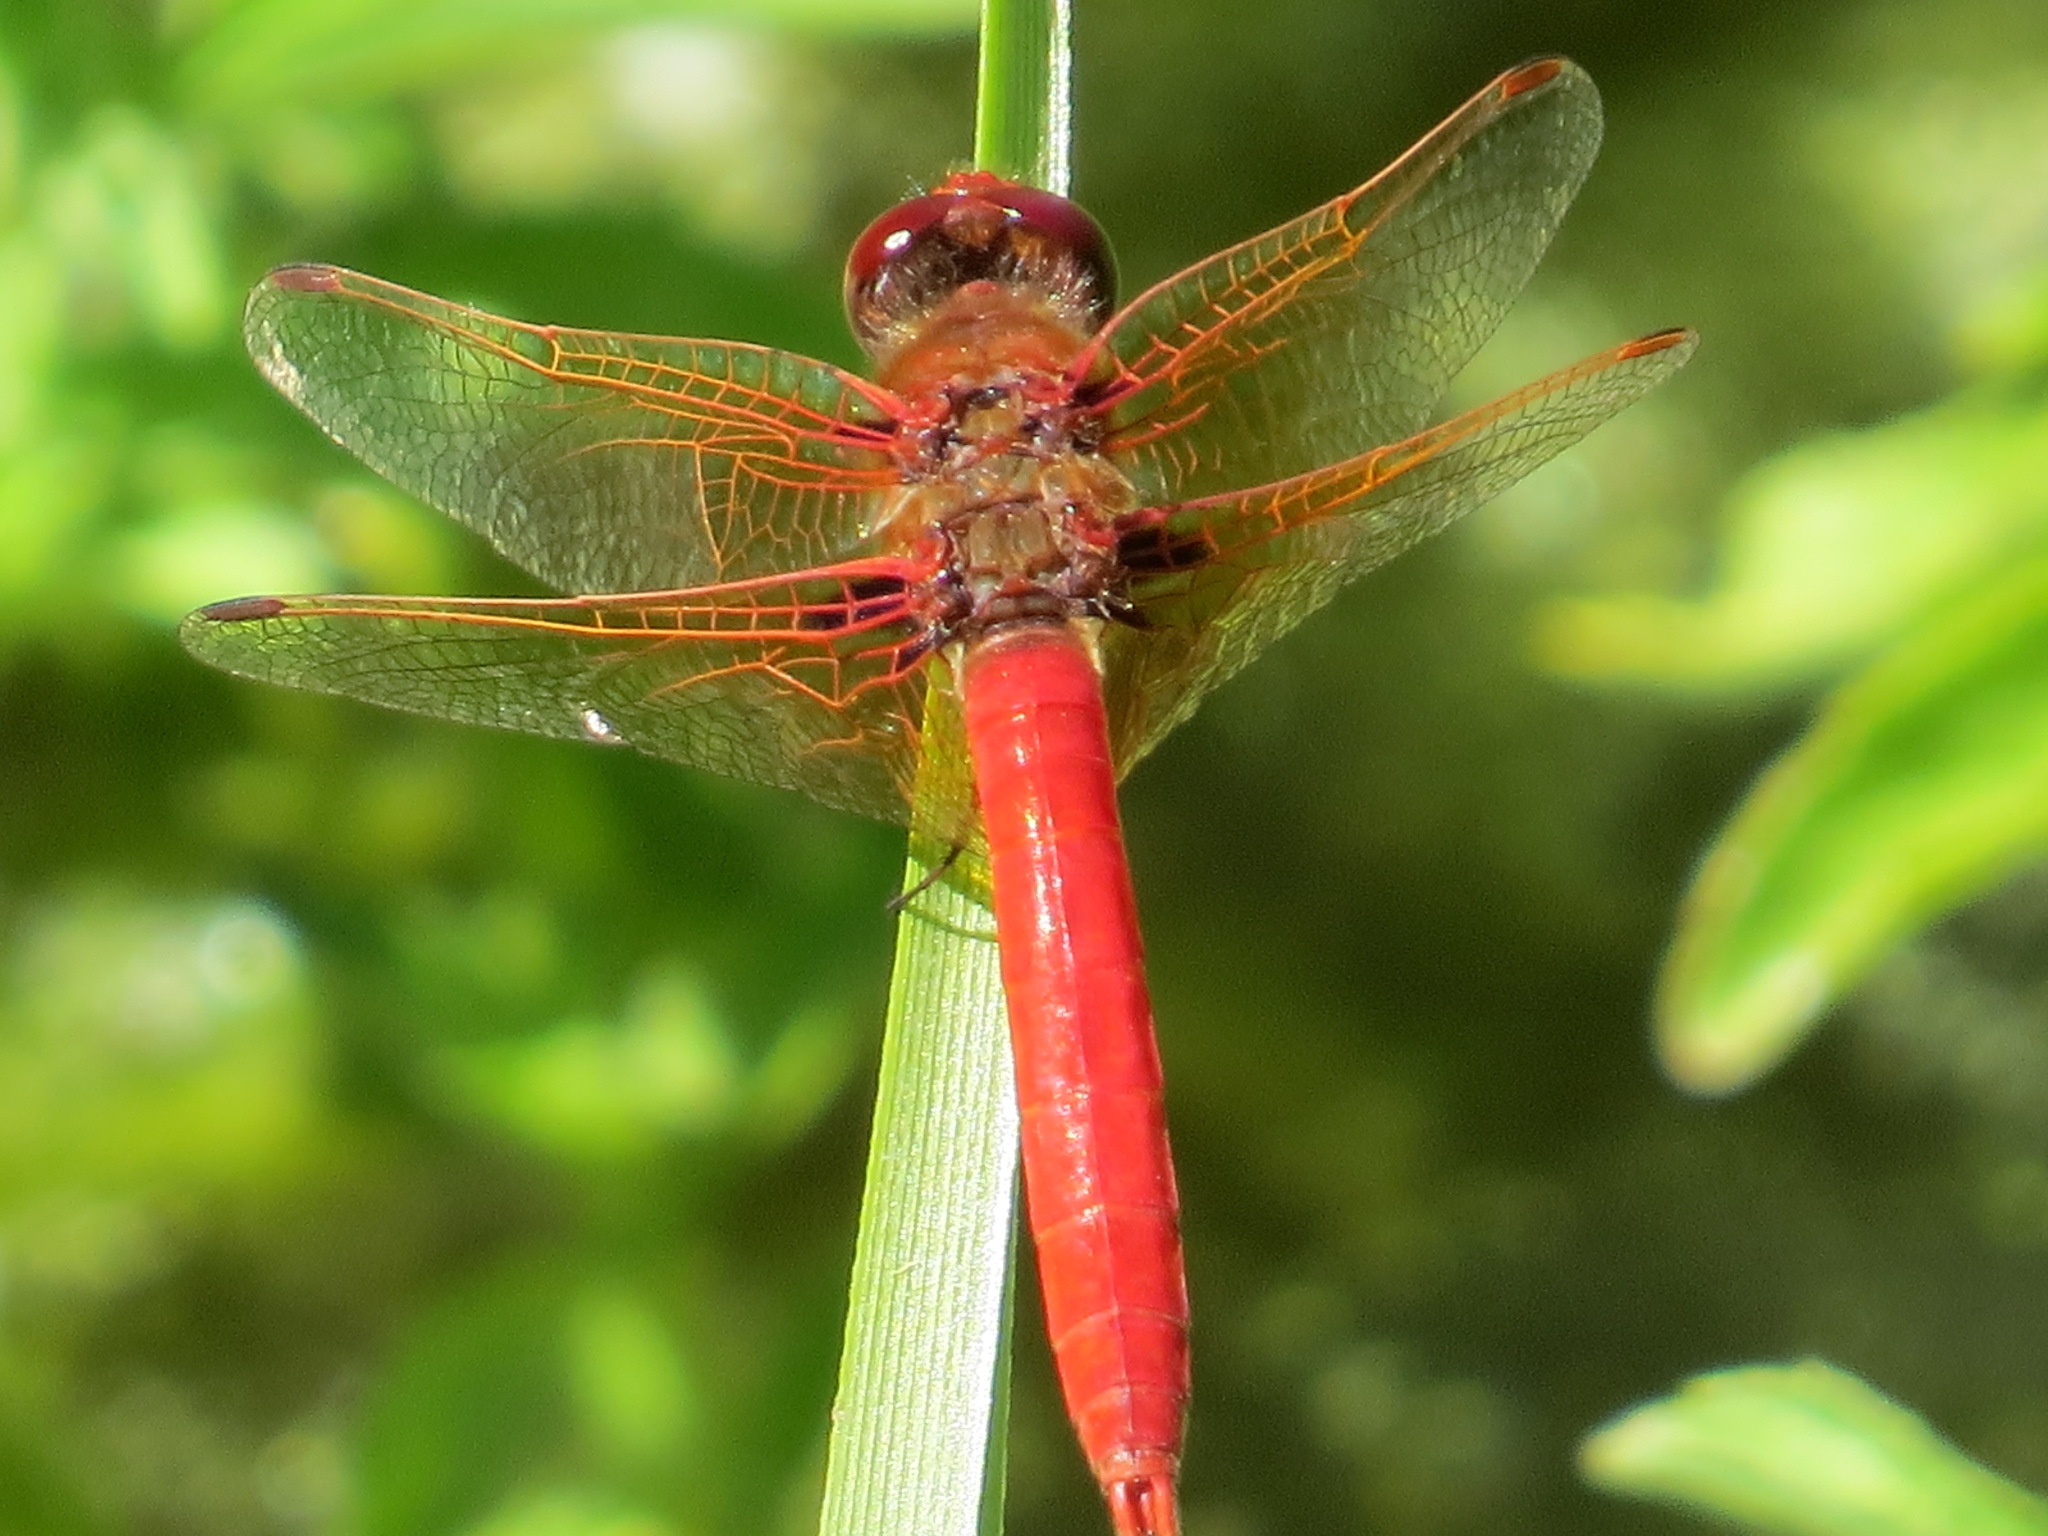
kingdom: Animalia
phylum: Arthropoda
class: Insecta
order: Odonata
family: Libellulidae
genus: Sympetrum
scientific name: Sympetrum illotum
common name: Cardinal meadowhawk
